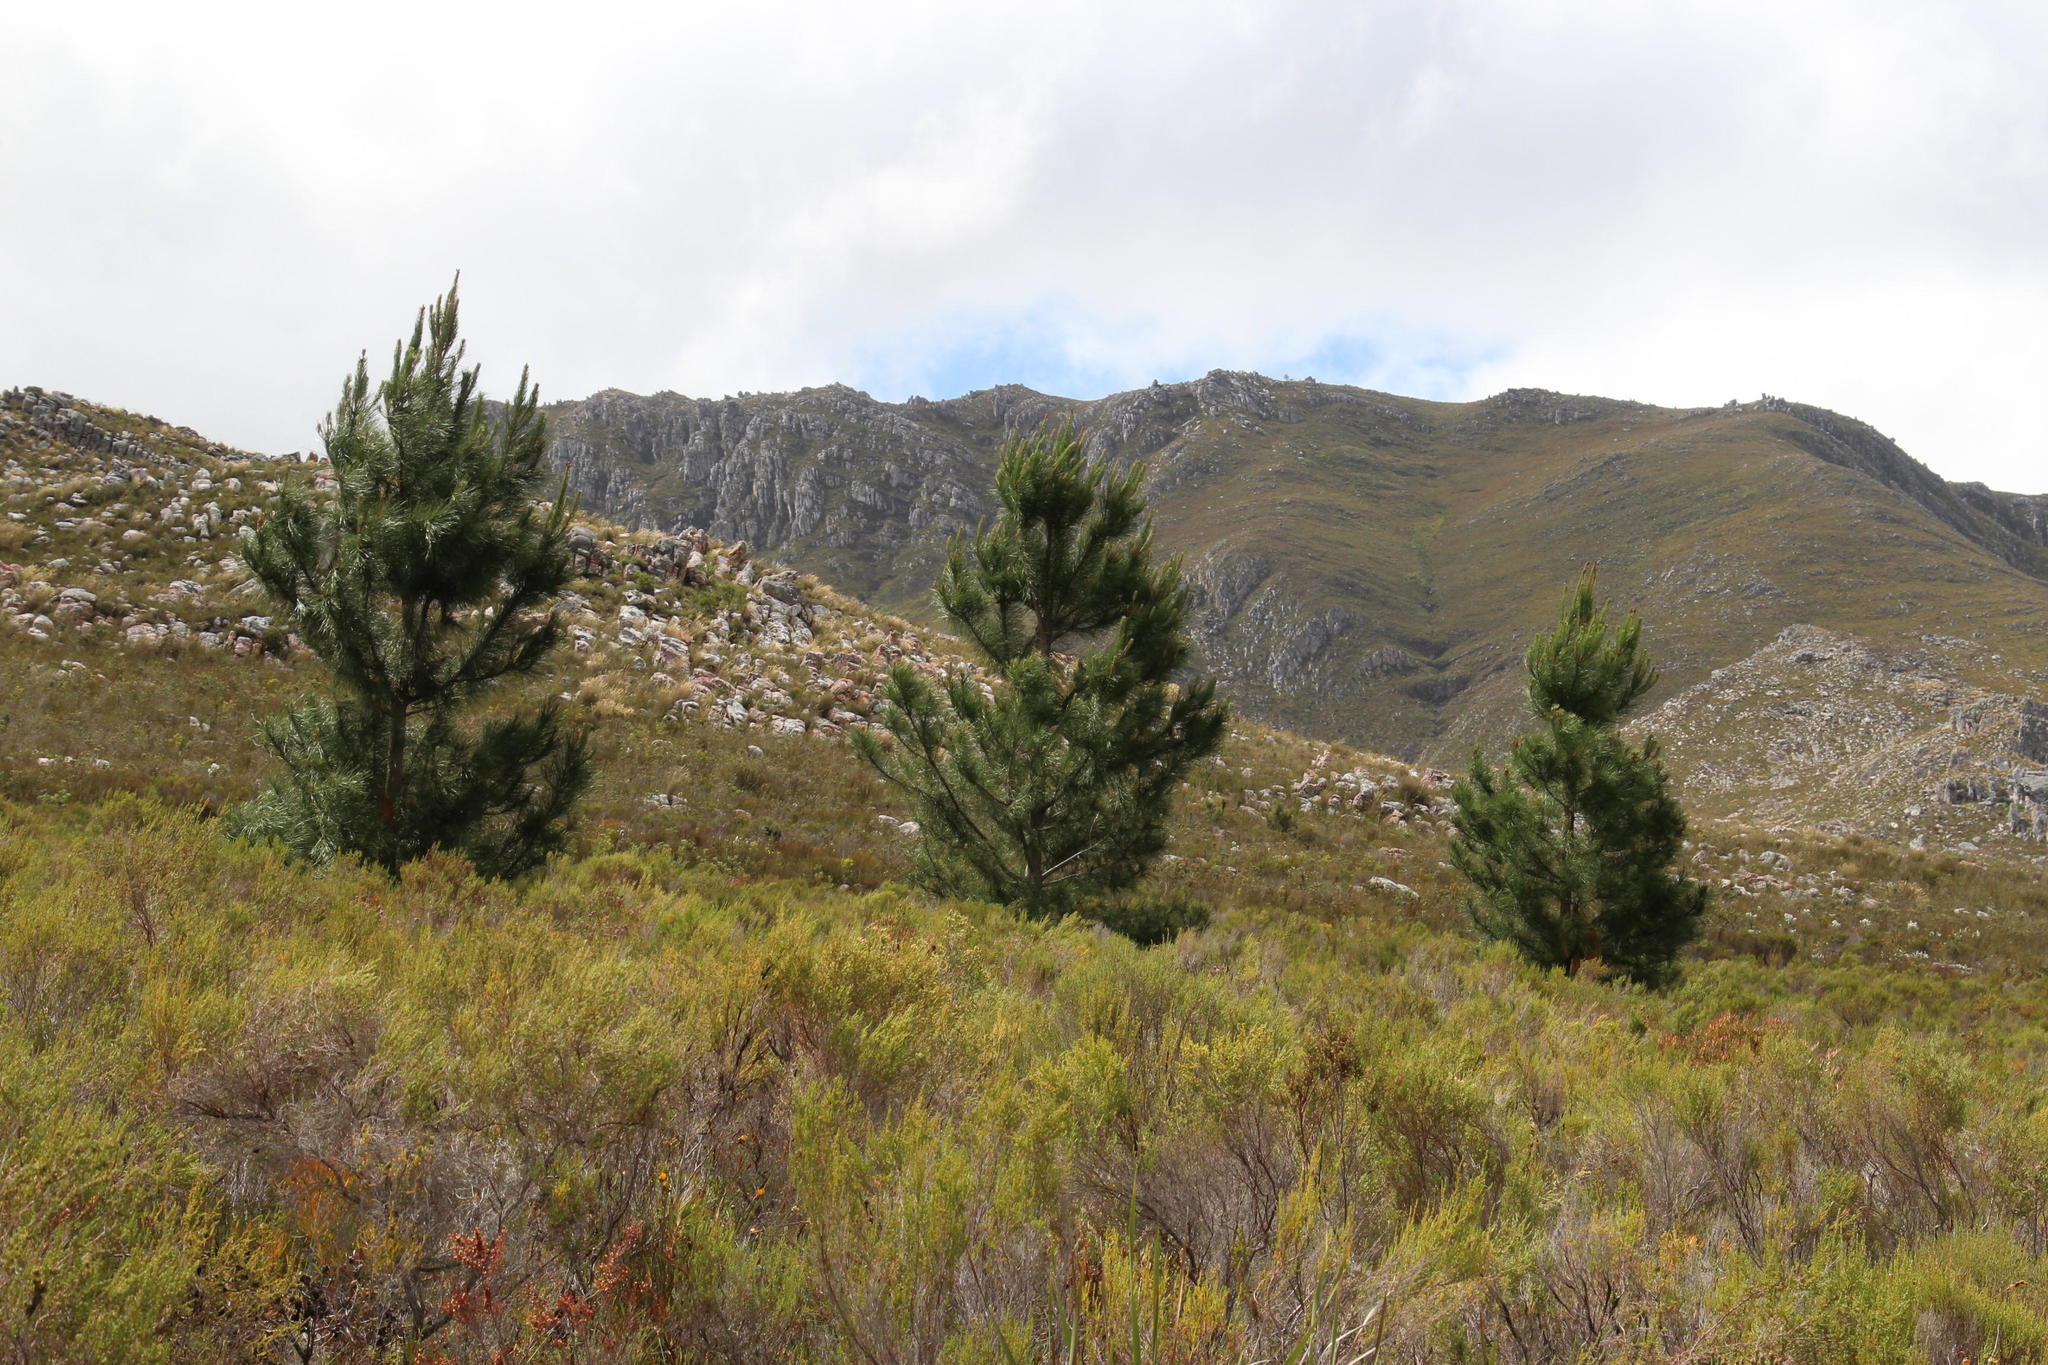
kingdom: Plantae
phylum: Tracheophyta
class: Pinopsida
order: Pinales
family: Pinaceae
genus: Pinus
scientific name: Pinus pinaster
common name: Maritime pine
